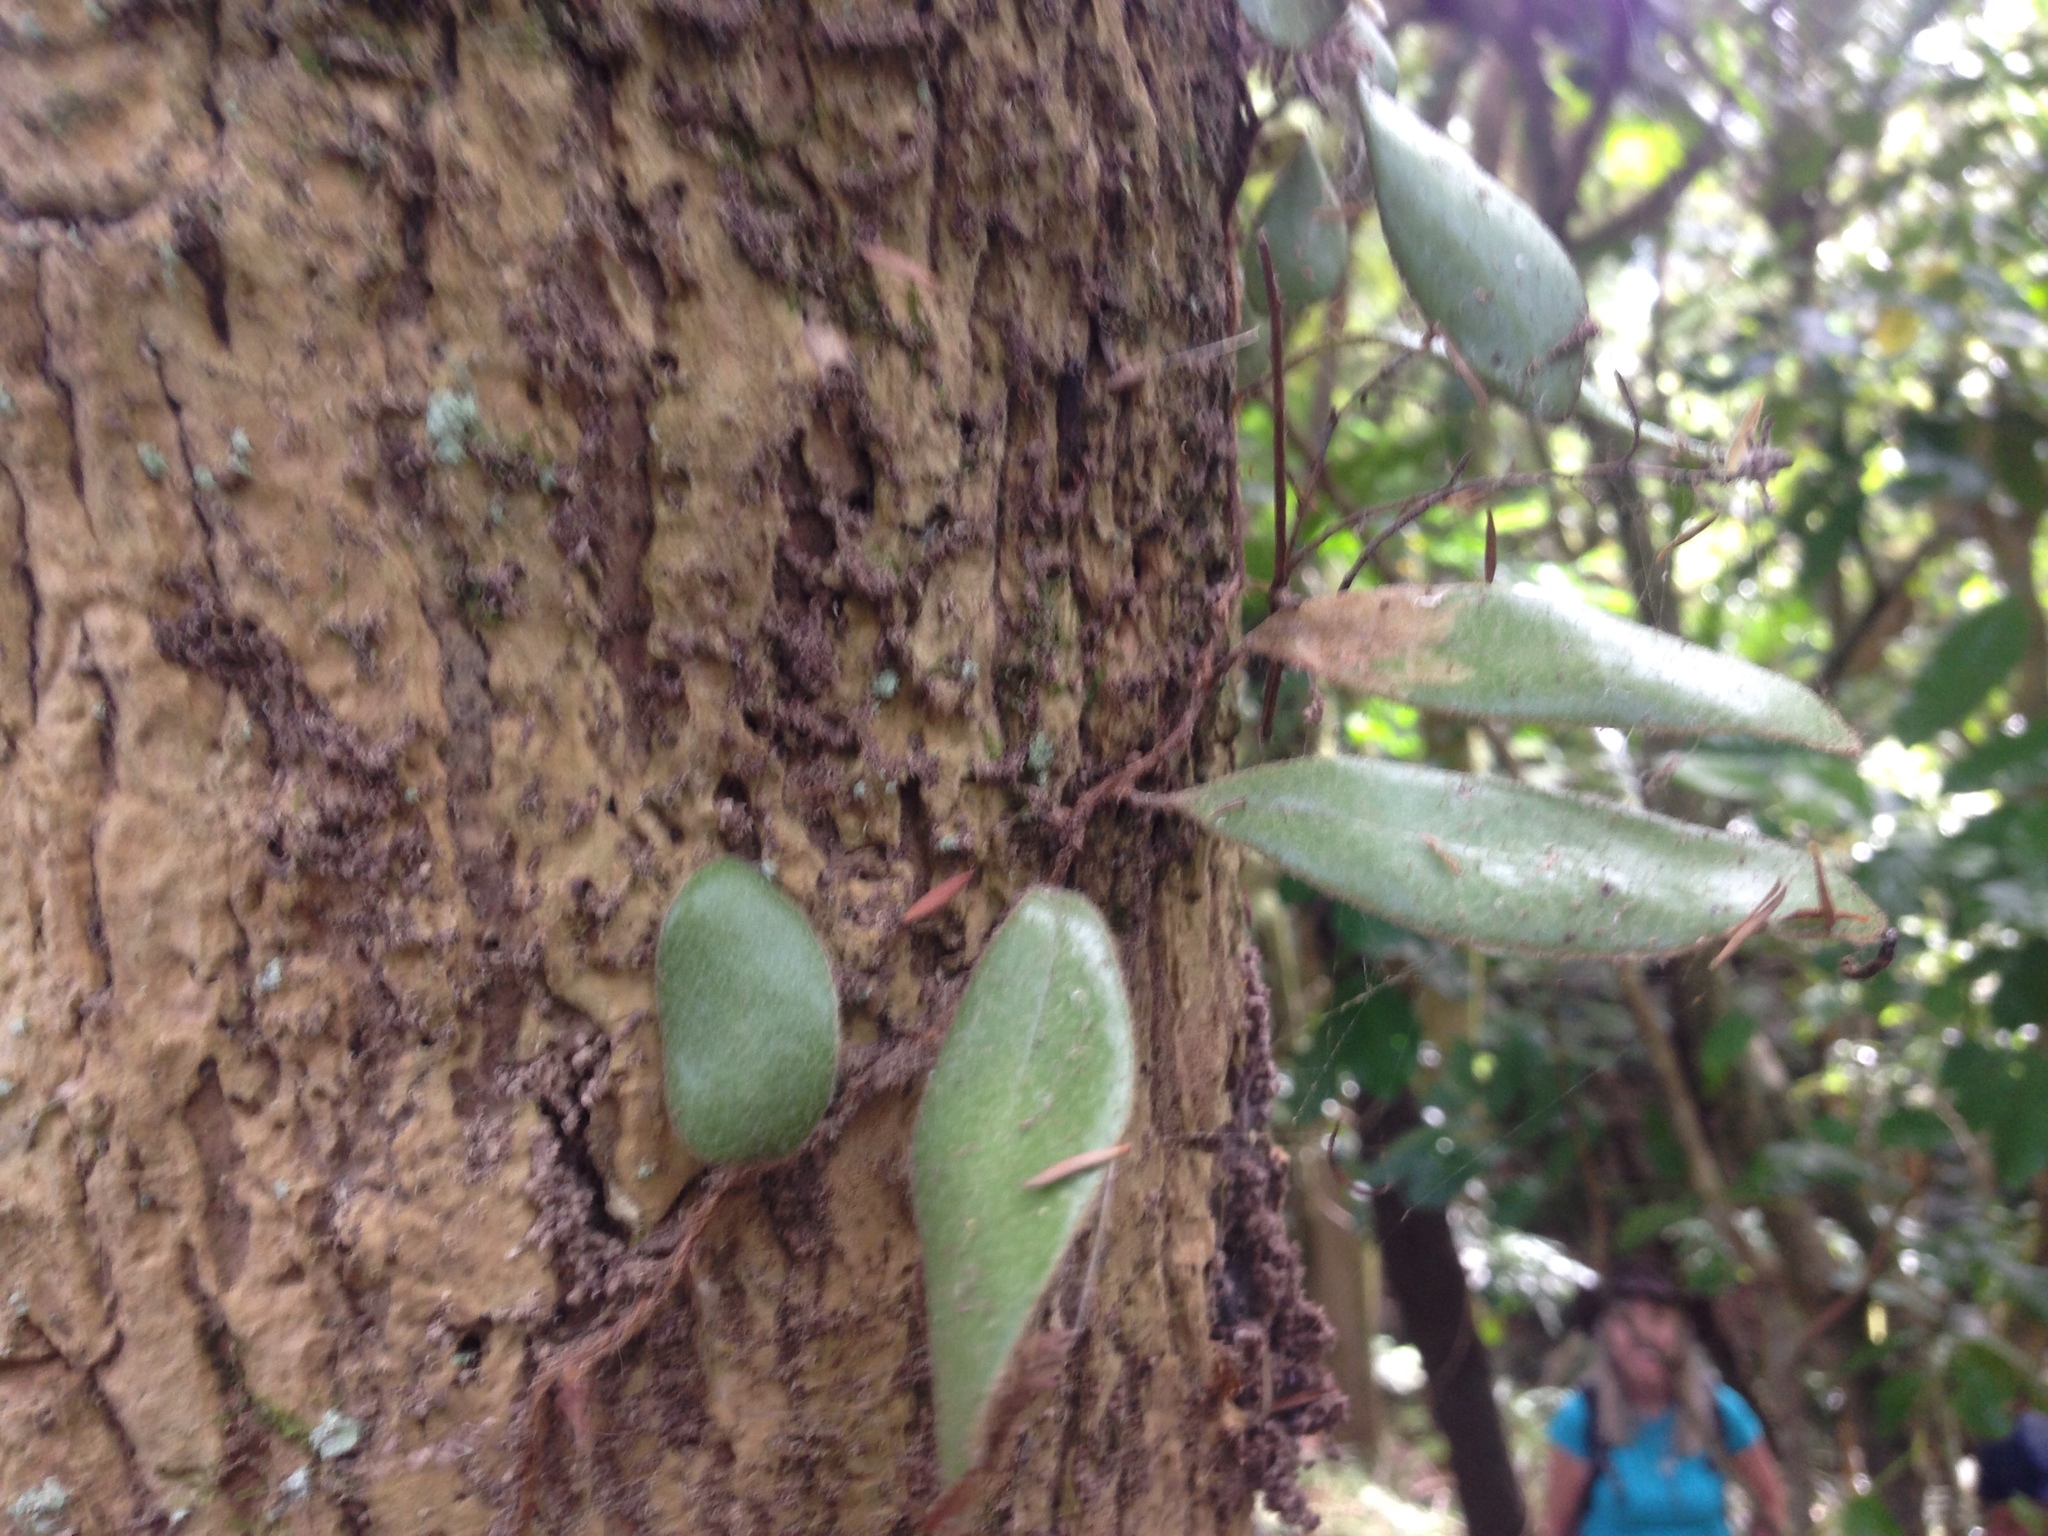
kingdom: Plantae
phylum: Tracheophyta
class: Polypodiopsida
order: Polypodiales
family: Polypodiaceae
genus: Pyrrosia
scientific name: Pyrrosia eleagnifolia
